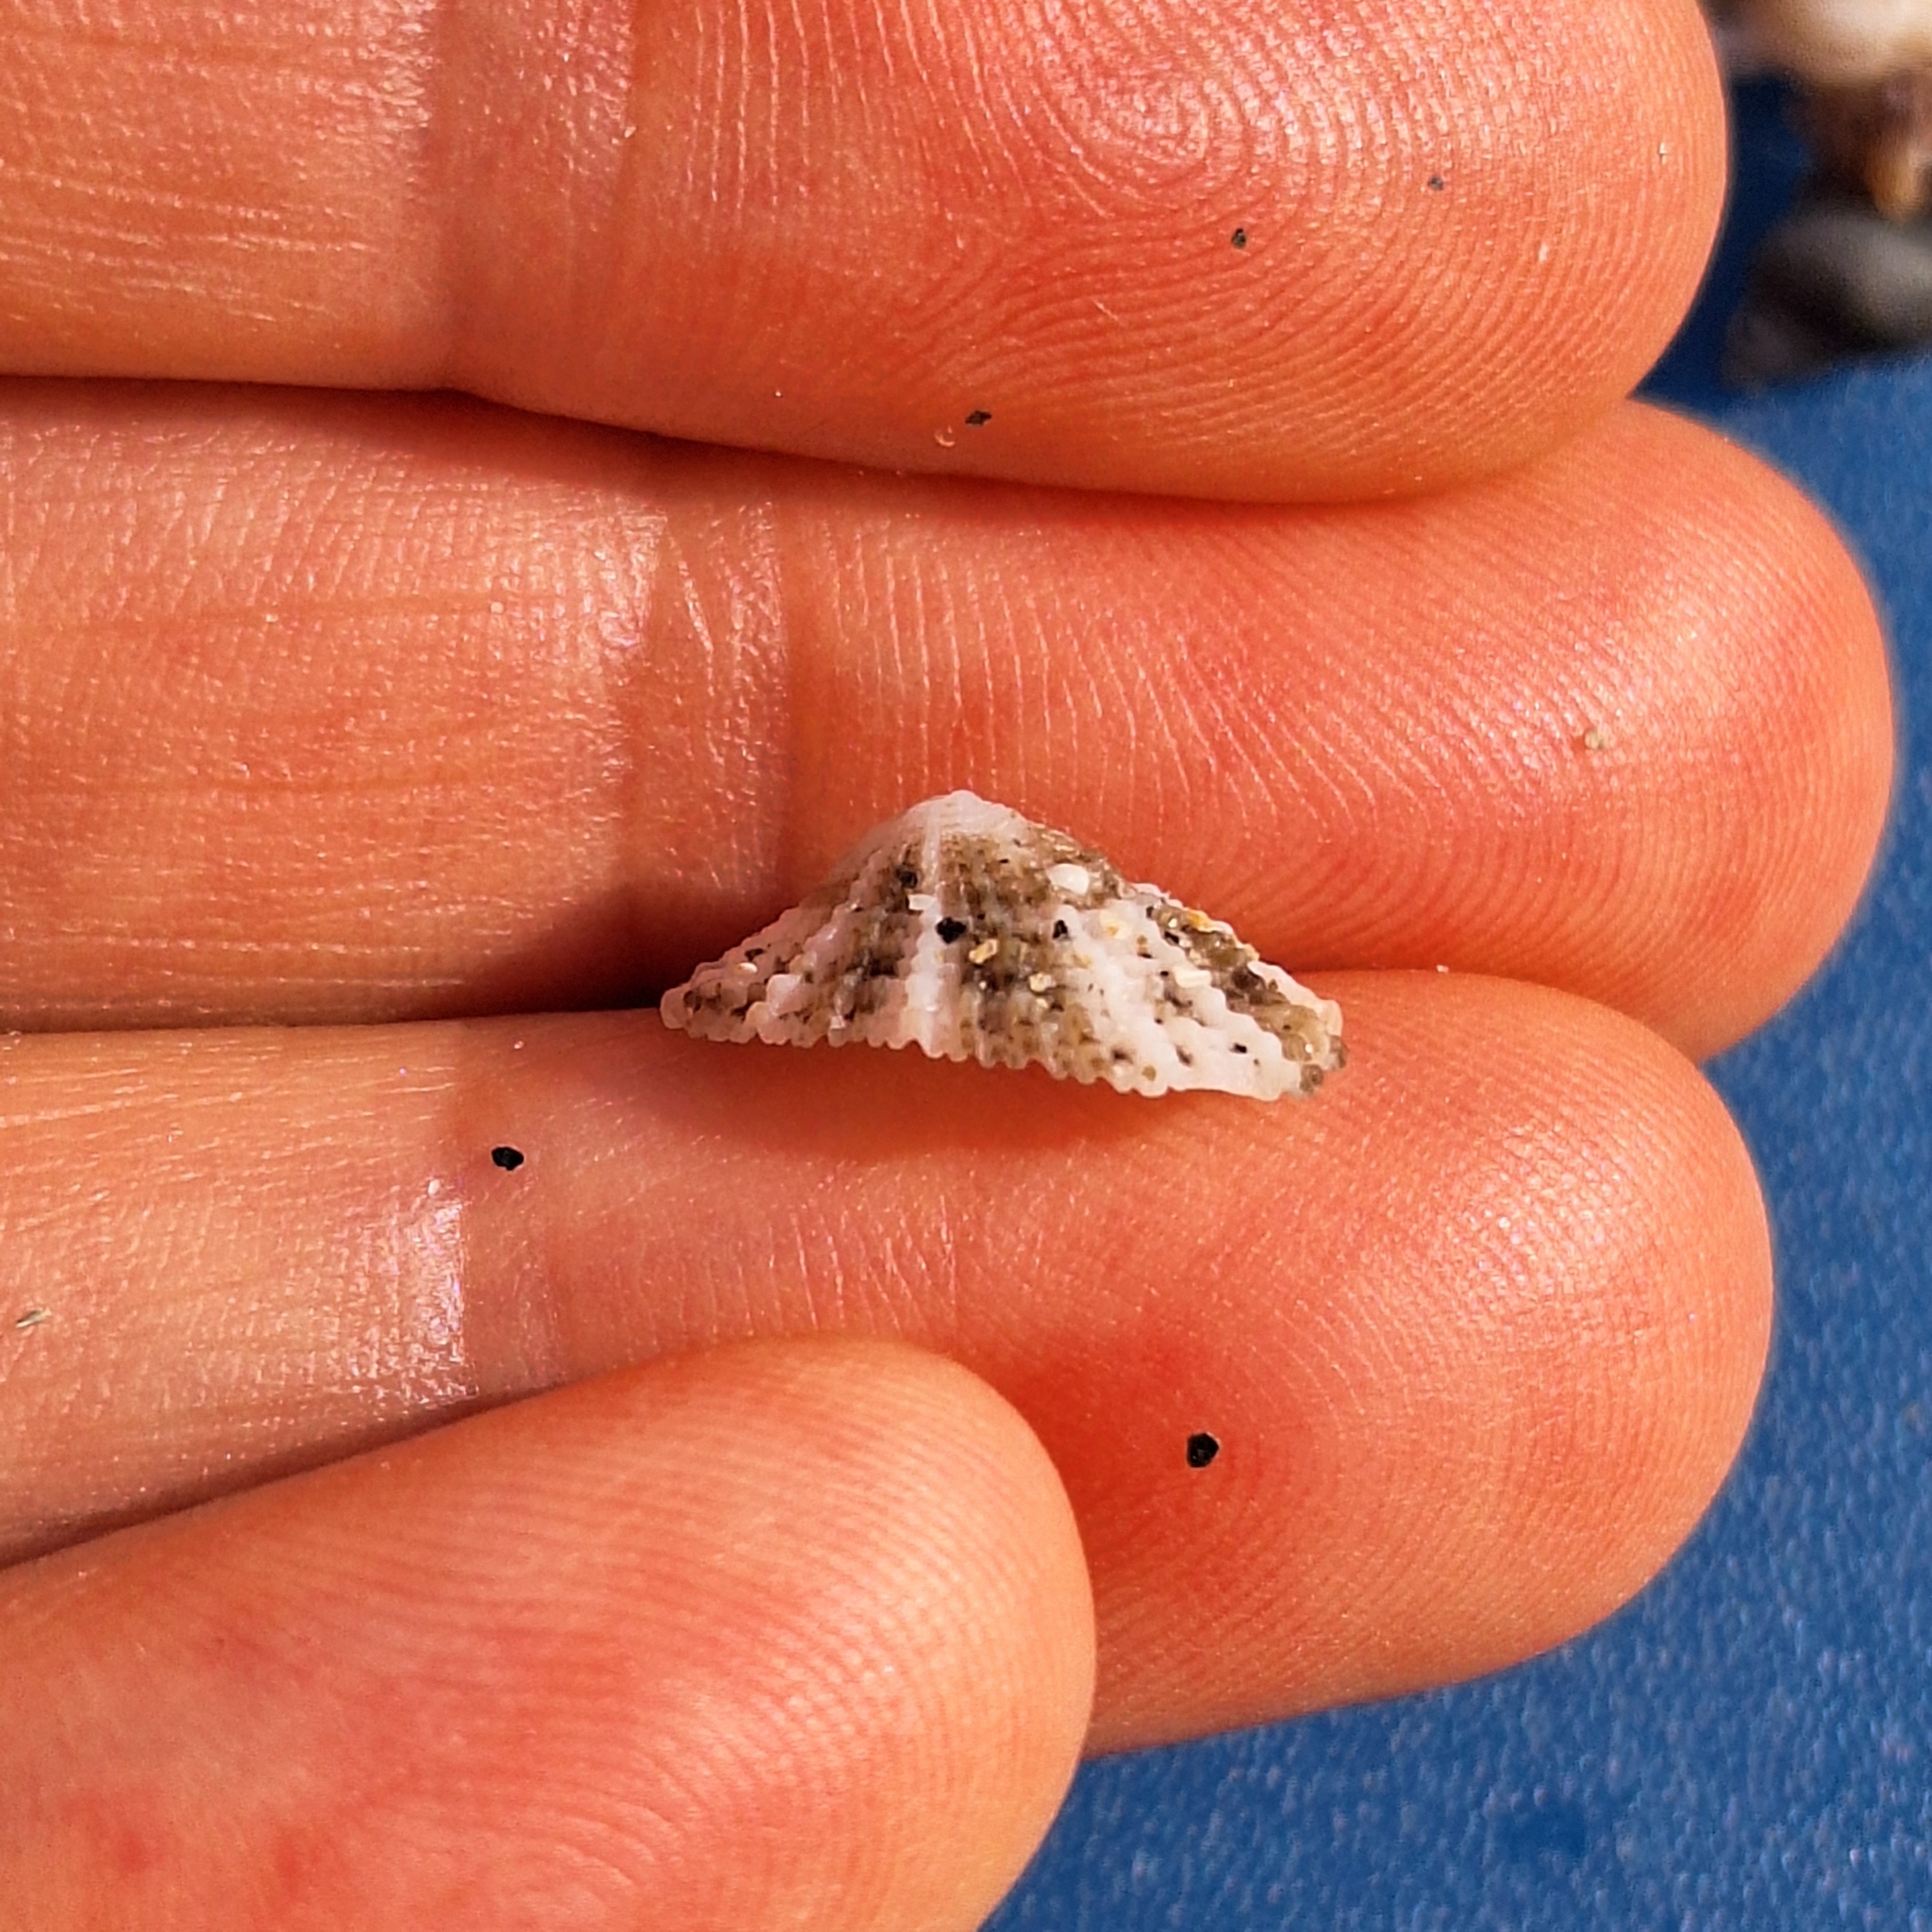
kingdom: Animalia
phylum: Mollusca
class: Gastropoda
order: Lepetellida
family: Fissurellidae
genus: Diodora
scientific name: Diodora graeca
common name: Common keyhole limpet
